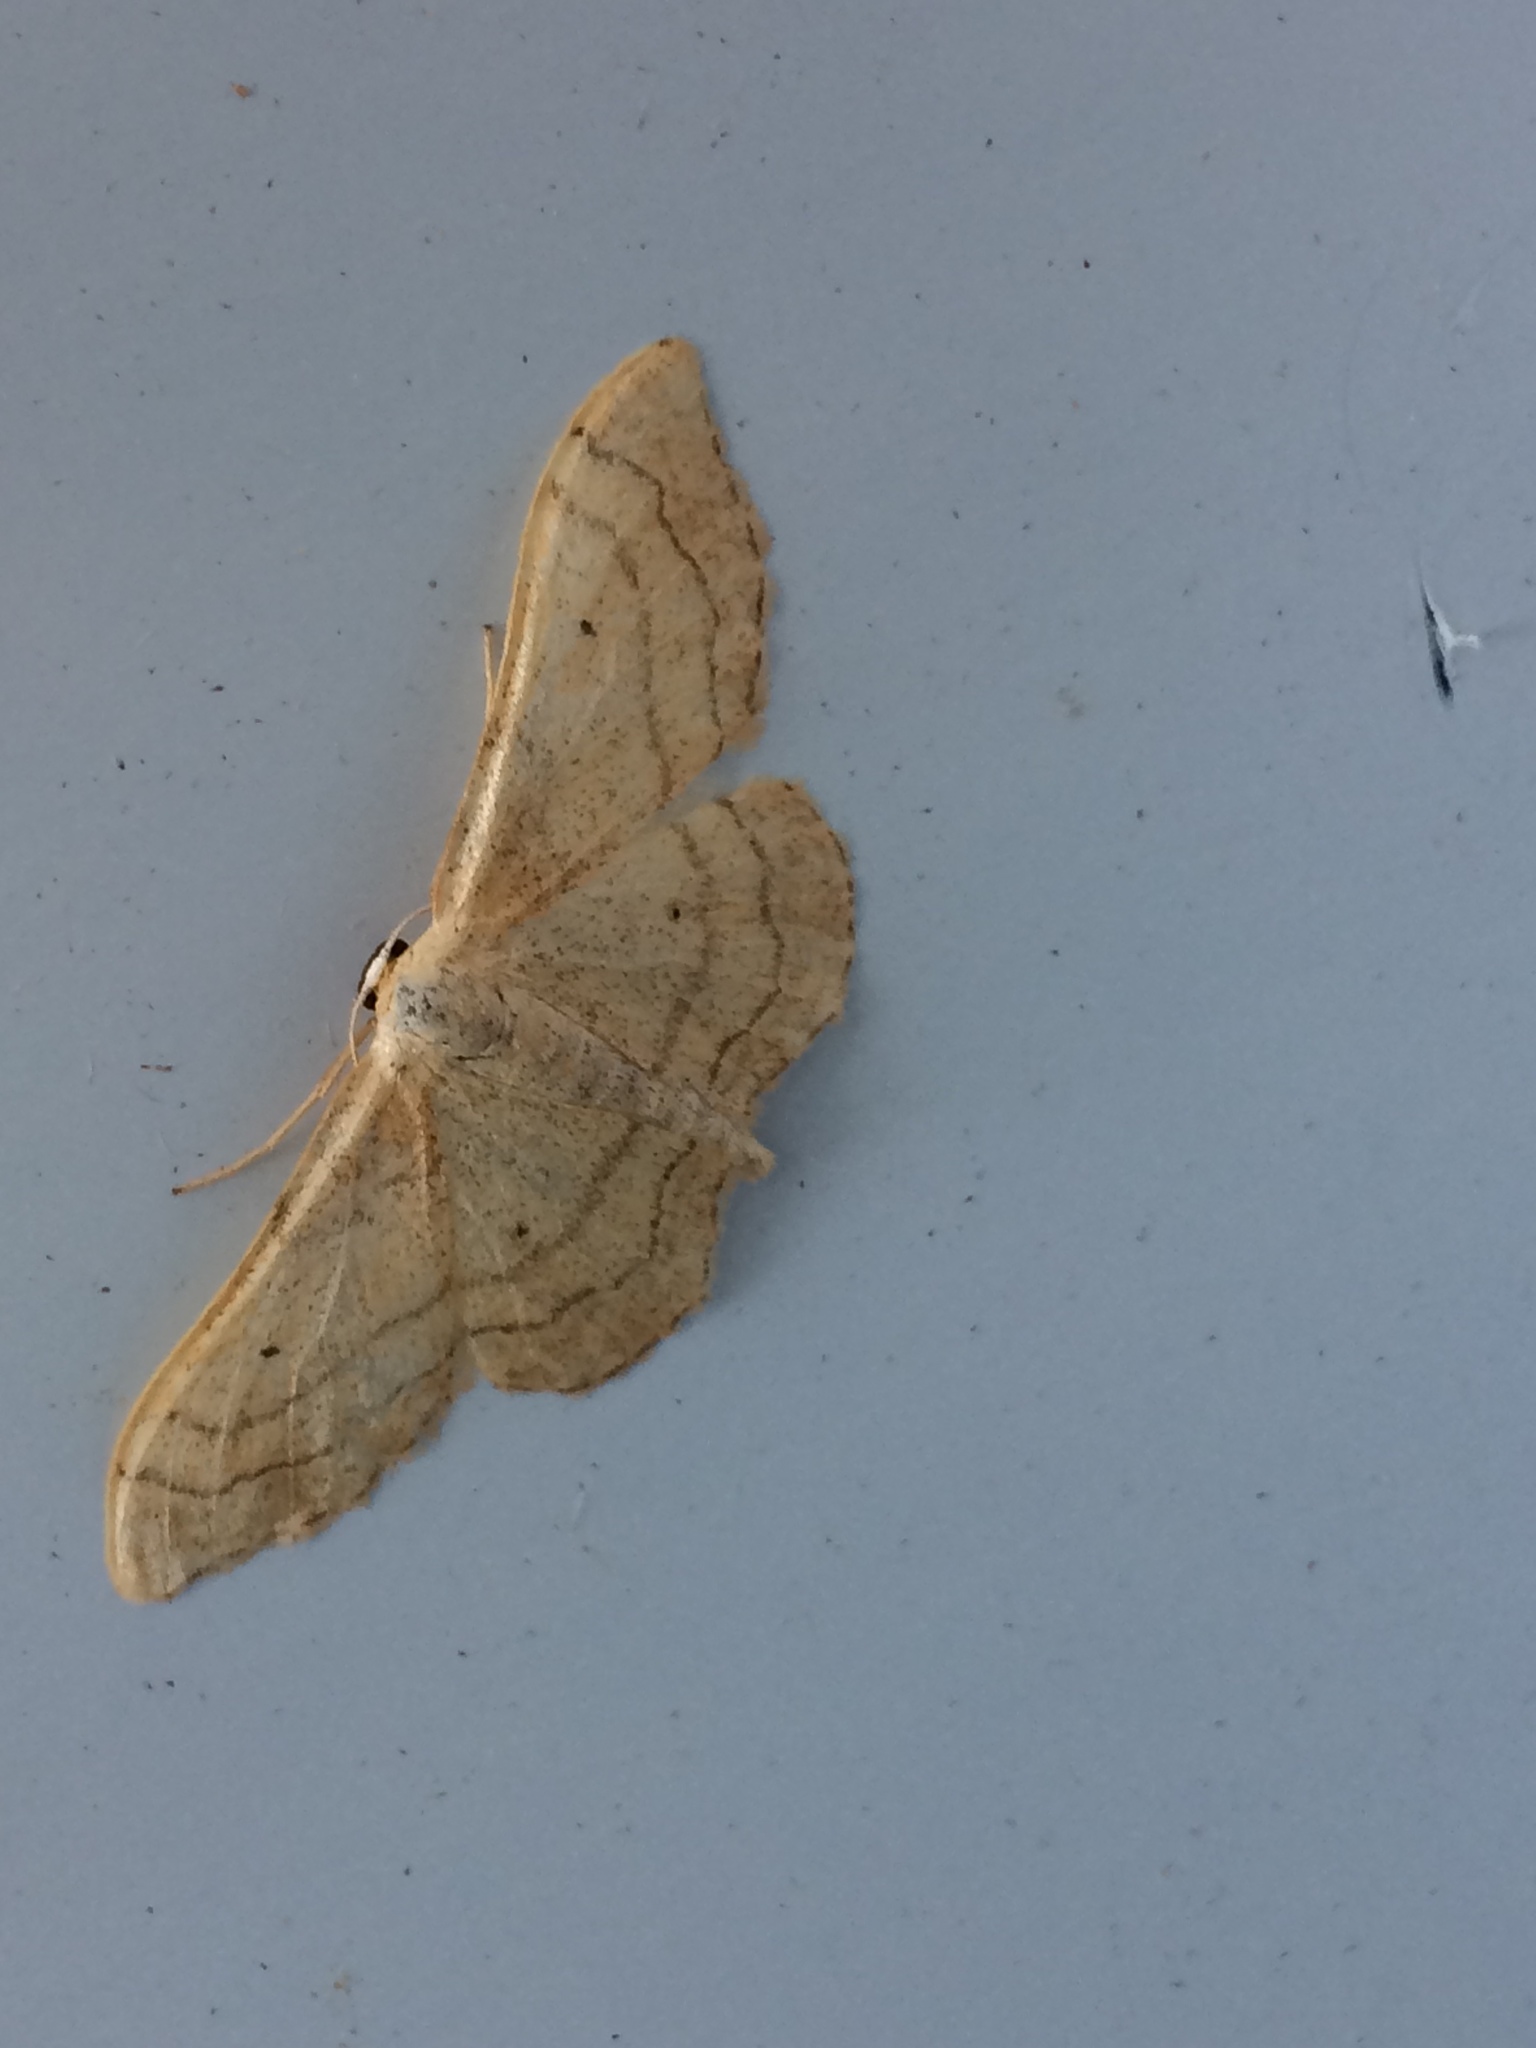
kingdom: Animalia
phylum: Arthropoda
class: Insecta
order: Lepidoptera
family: Geometridae
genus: Idaea
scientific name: Idaea aversata
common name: Riband wave
